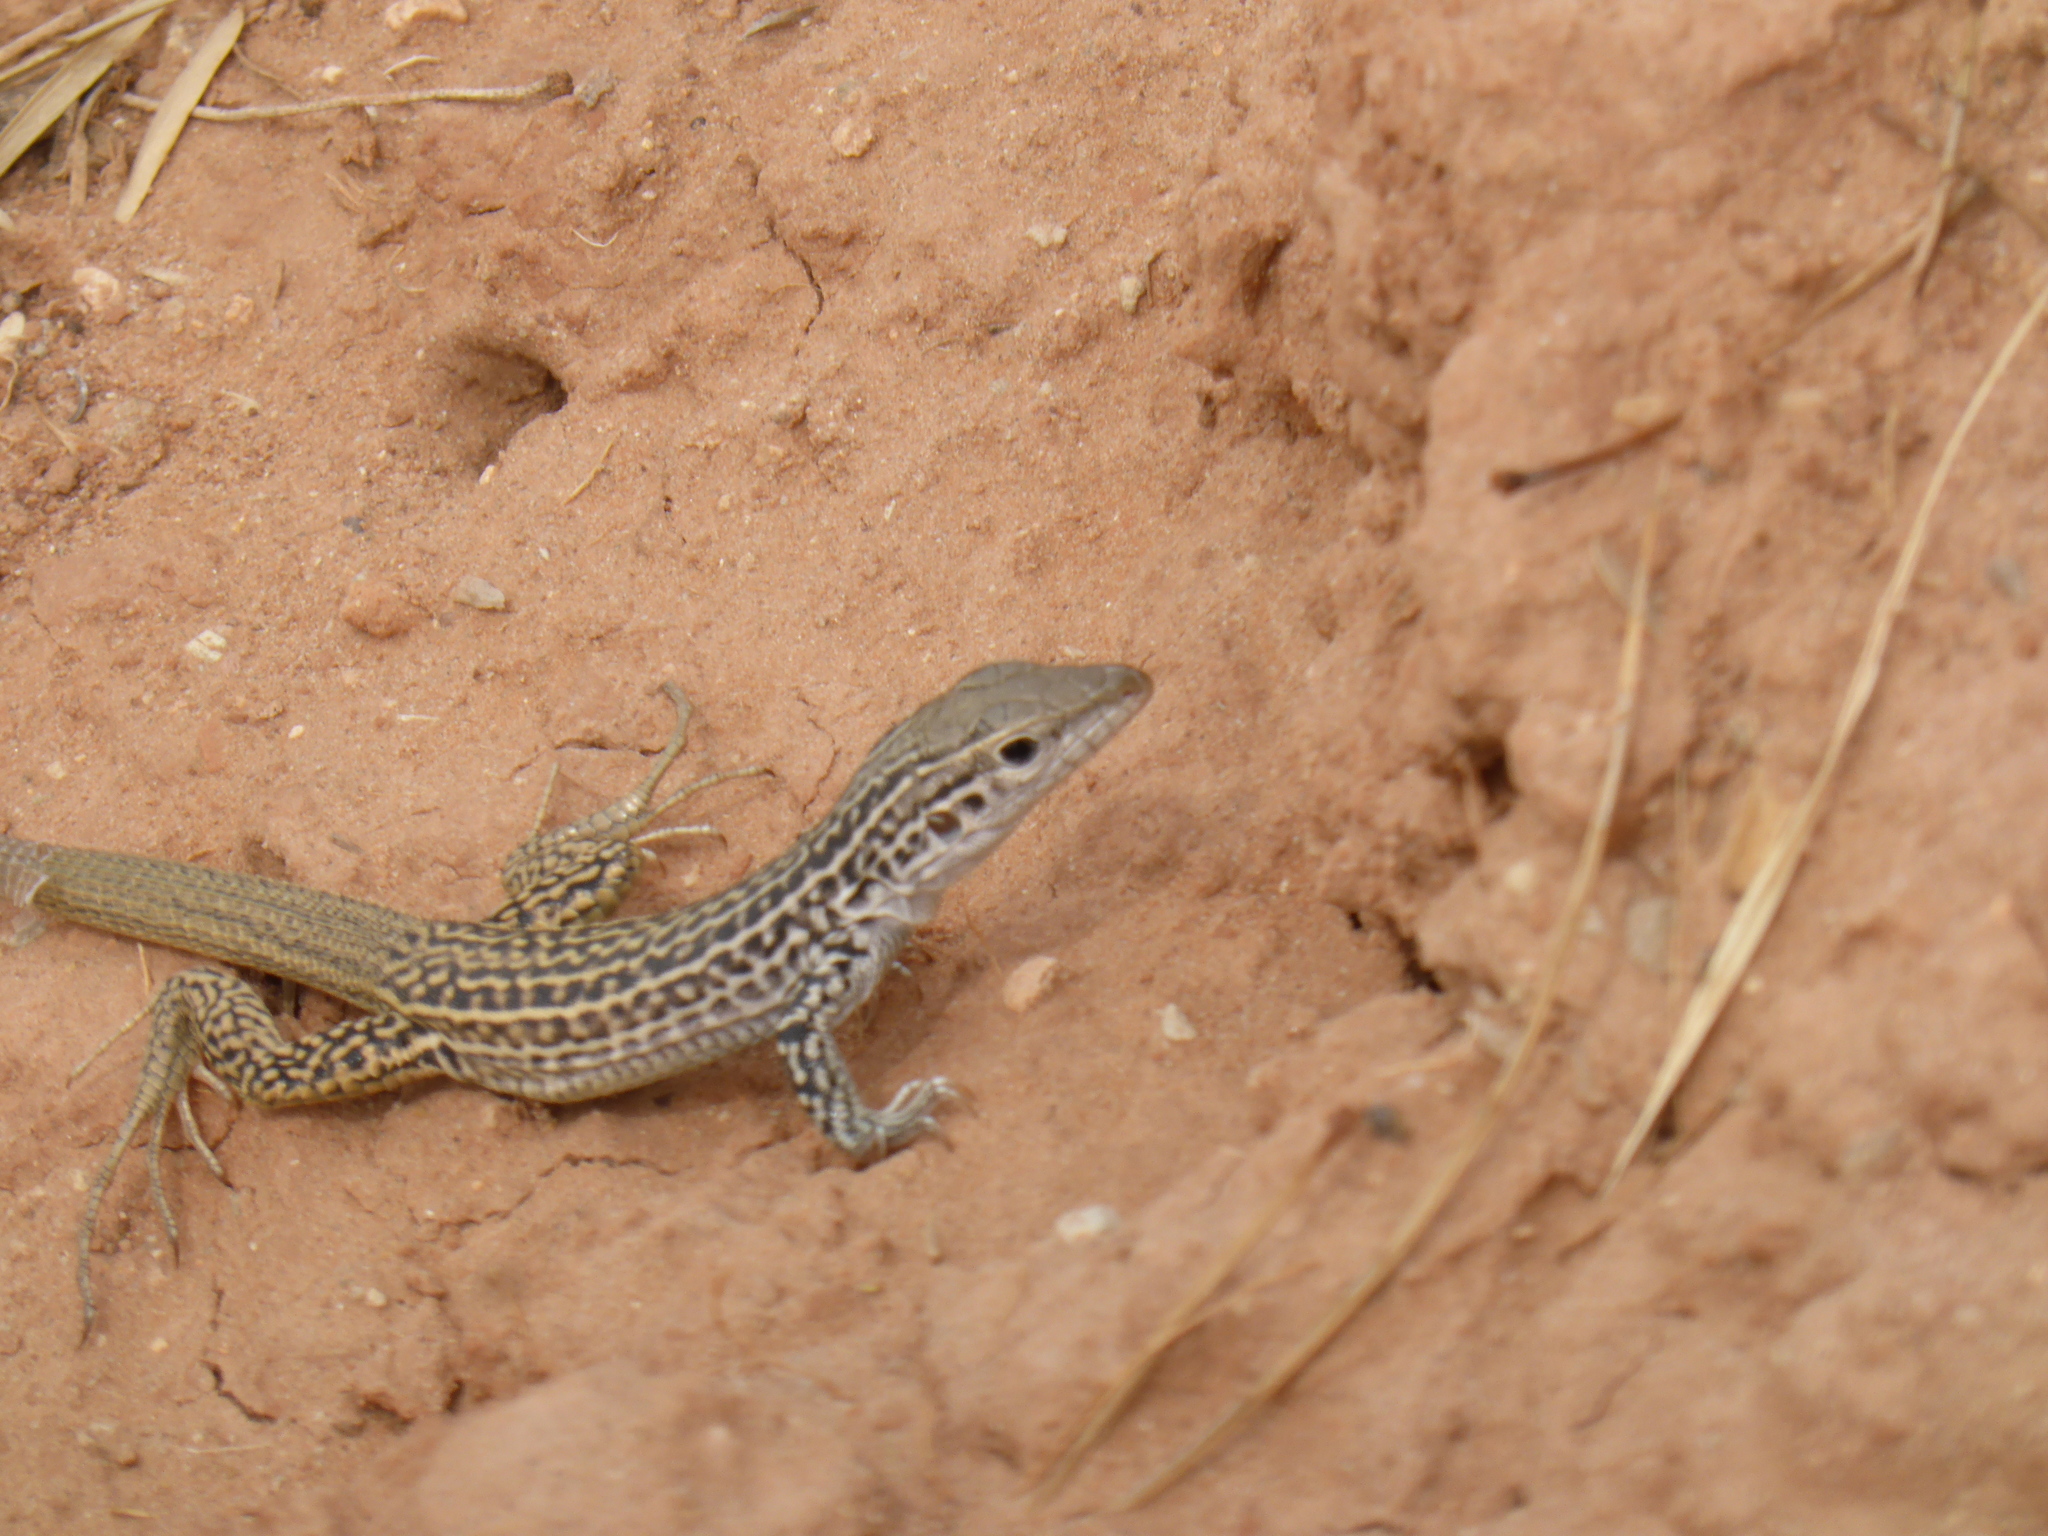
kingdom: Animalia
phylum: Chordata
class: Squamata
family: Teiidae
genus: Aspidoscelis
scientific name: Aspidoscelis tesselatus
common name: Common checkered whiptail [tesselata]
